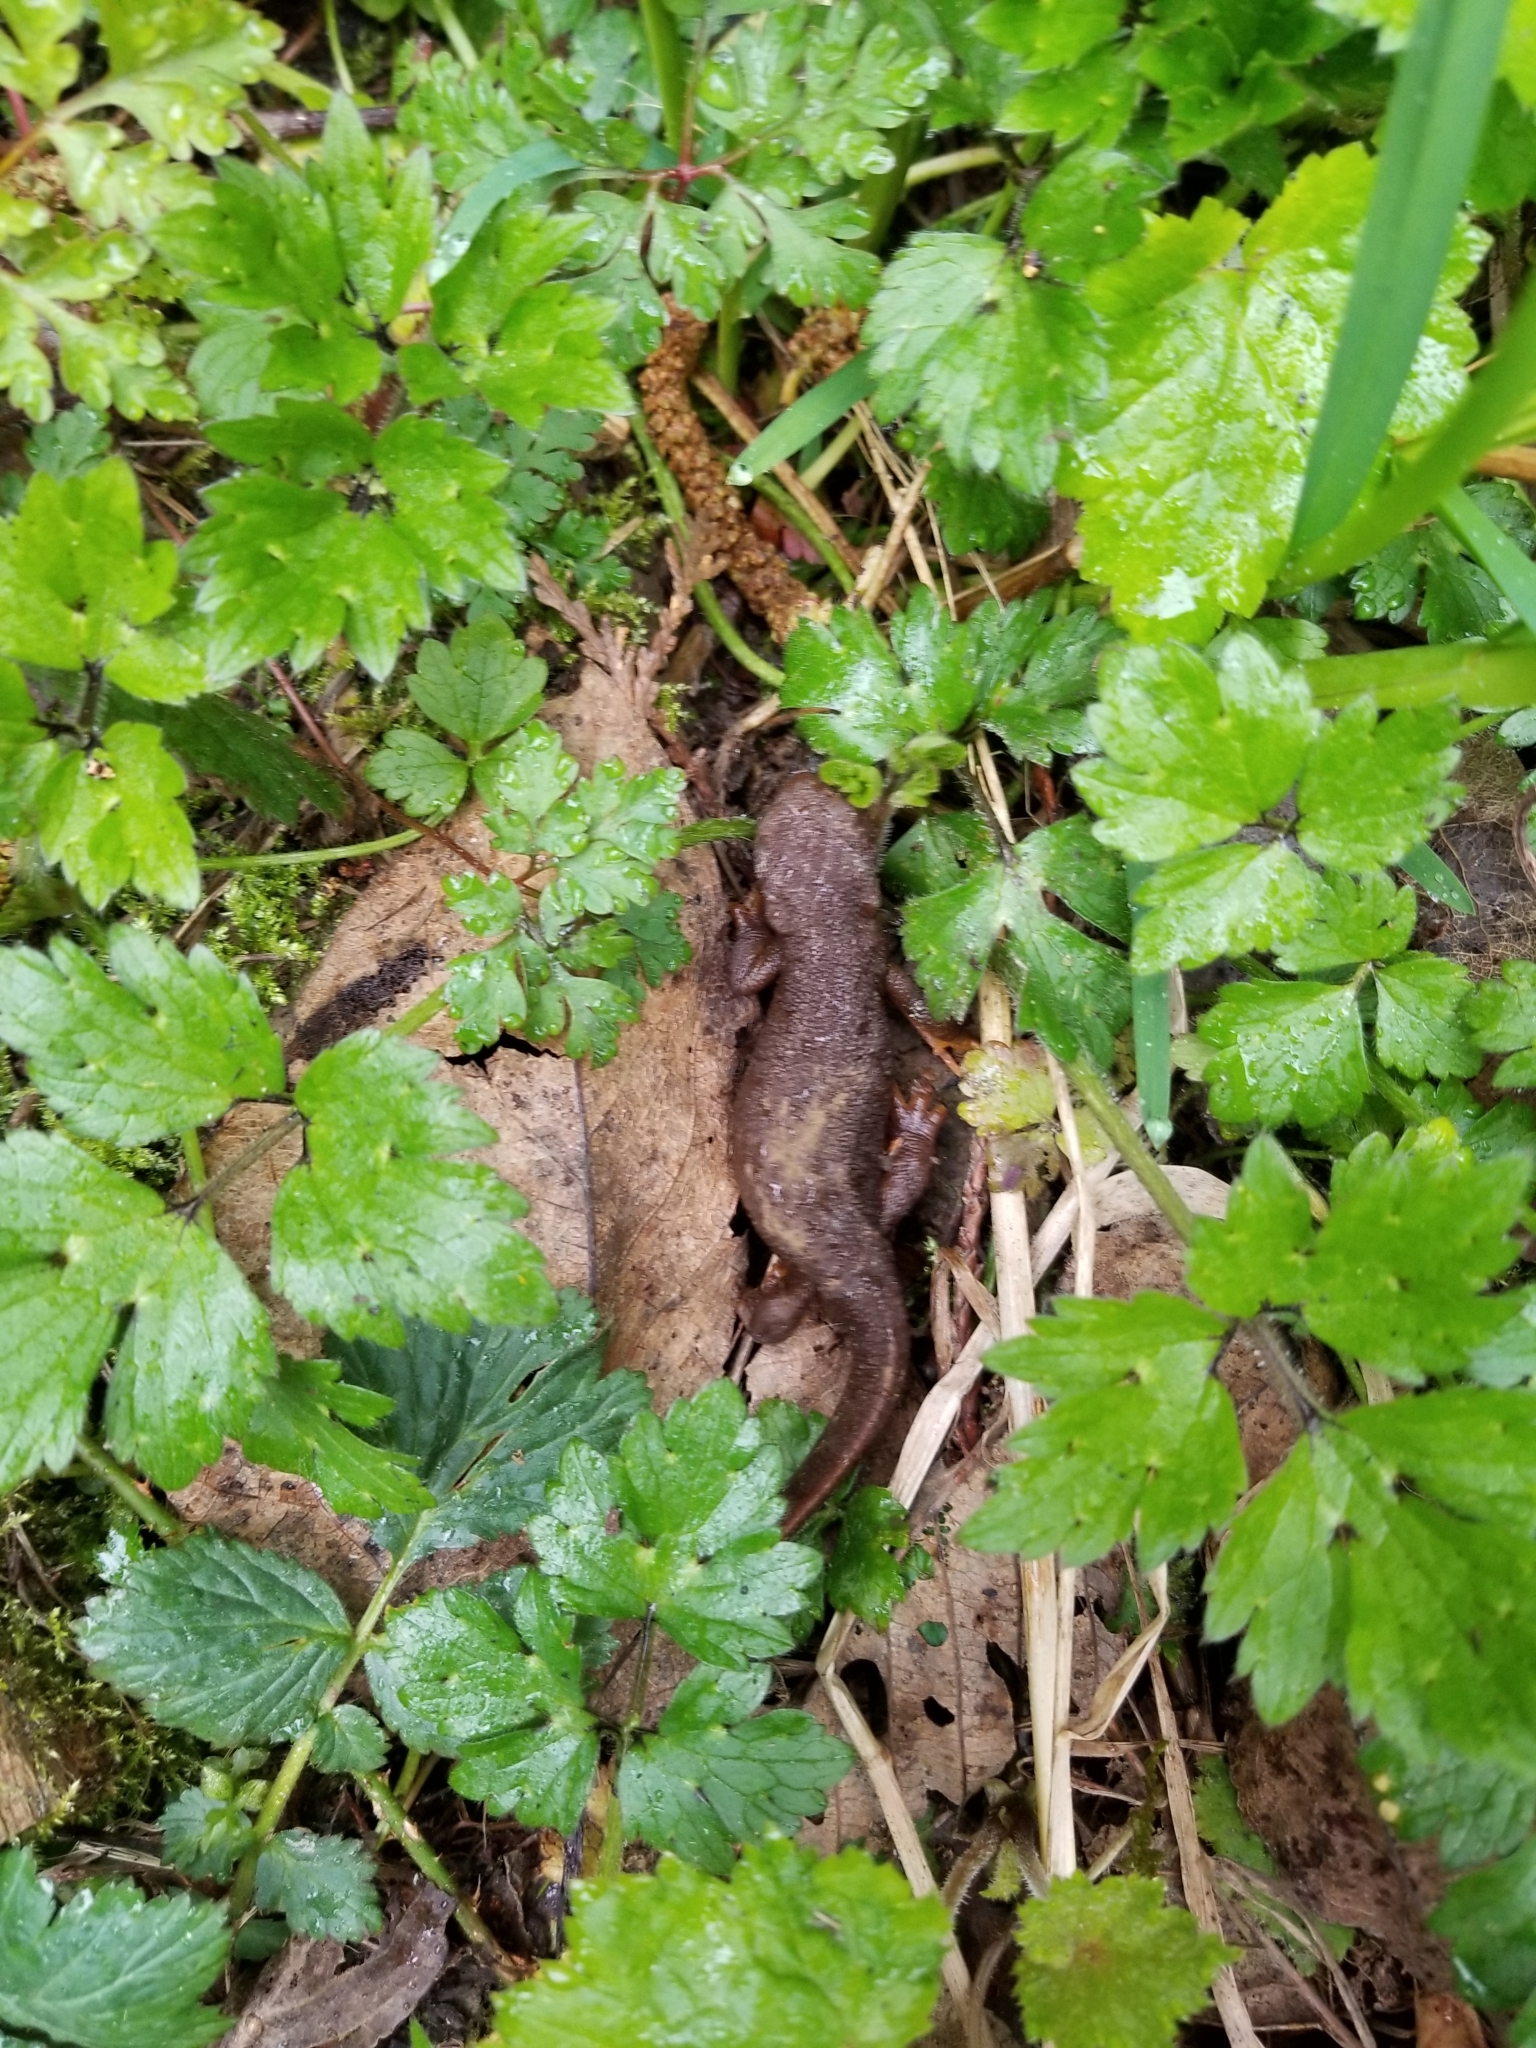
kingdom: Animalia
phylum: Chordata
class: Amphibia
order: Caudata
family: Salamandridae
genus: Taricha
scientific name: Taricha granulosa
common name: Roughskin newt
